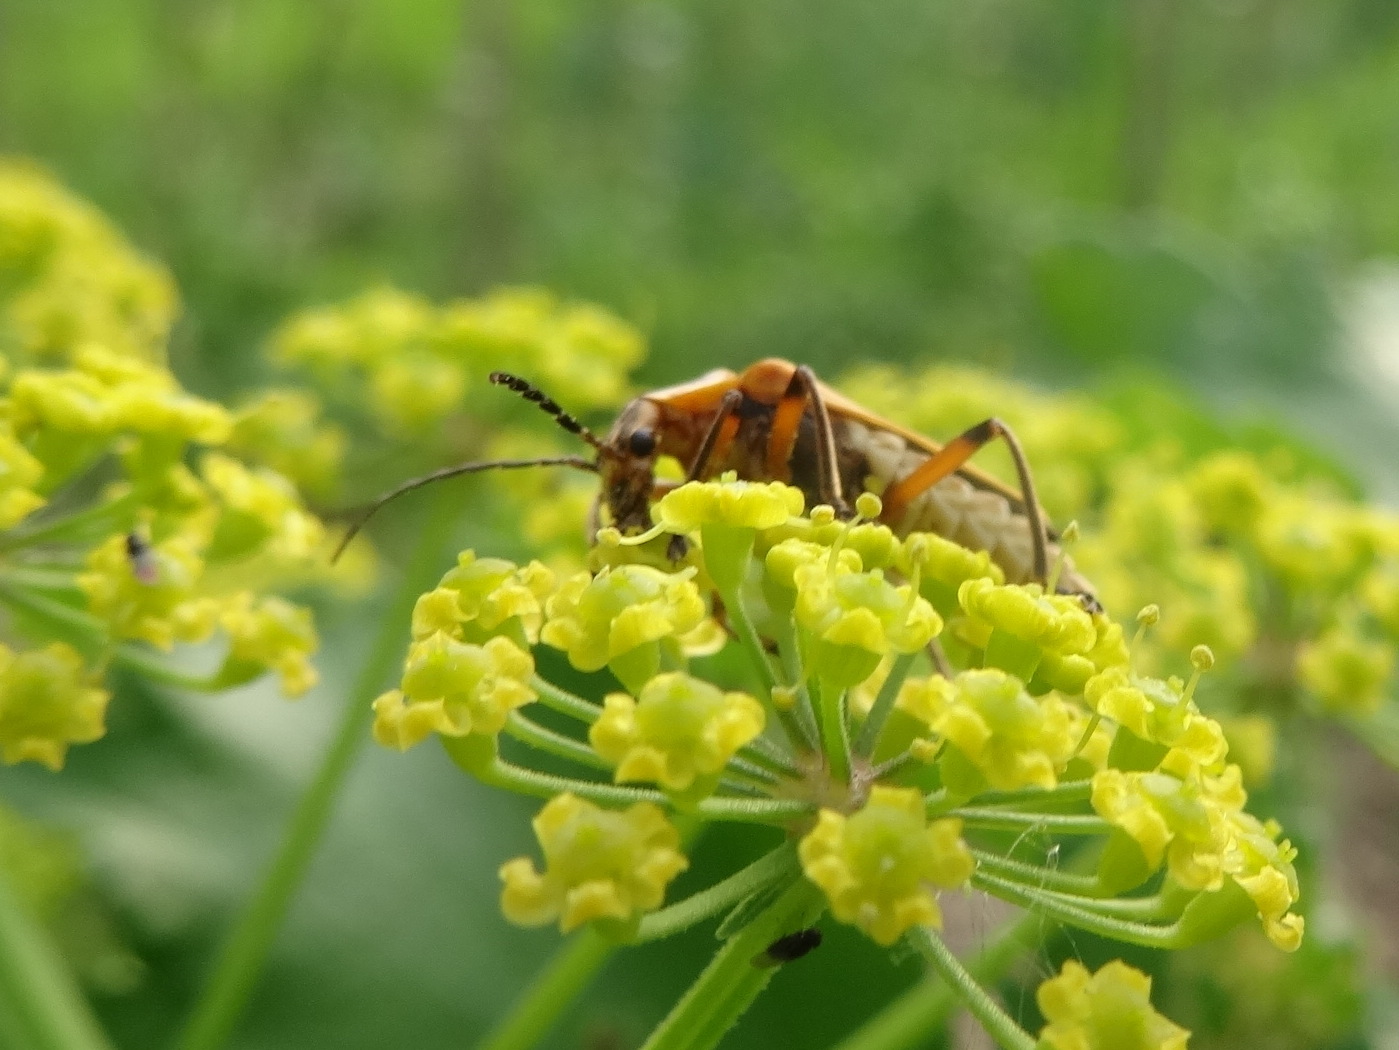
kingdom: Animalia
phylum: Arthropoda
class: Insecta
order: Coleoptera
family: Cantharidae
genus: Chauliognathus
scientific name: Chauliognathus marginatus
